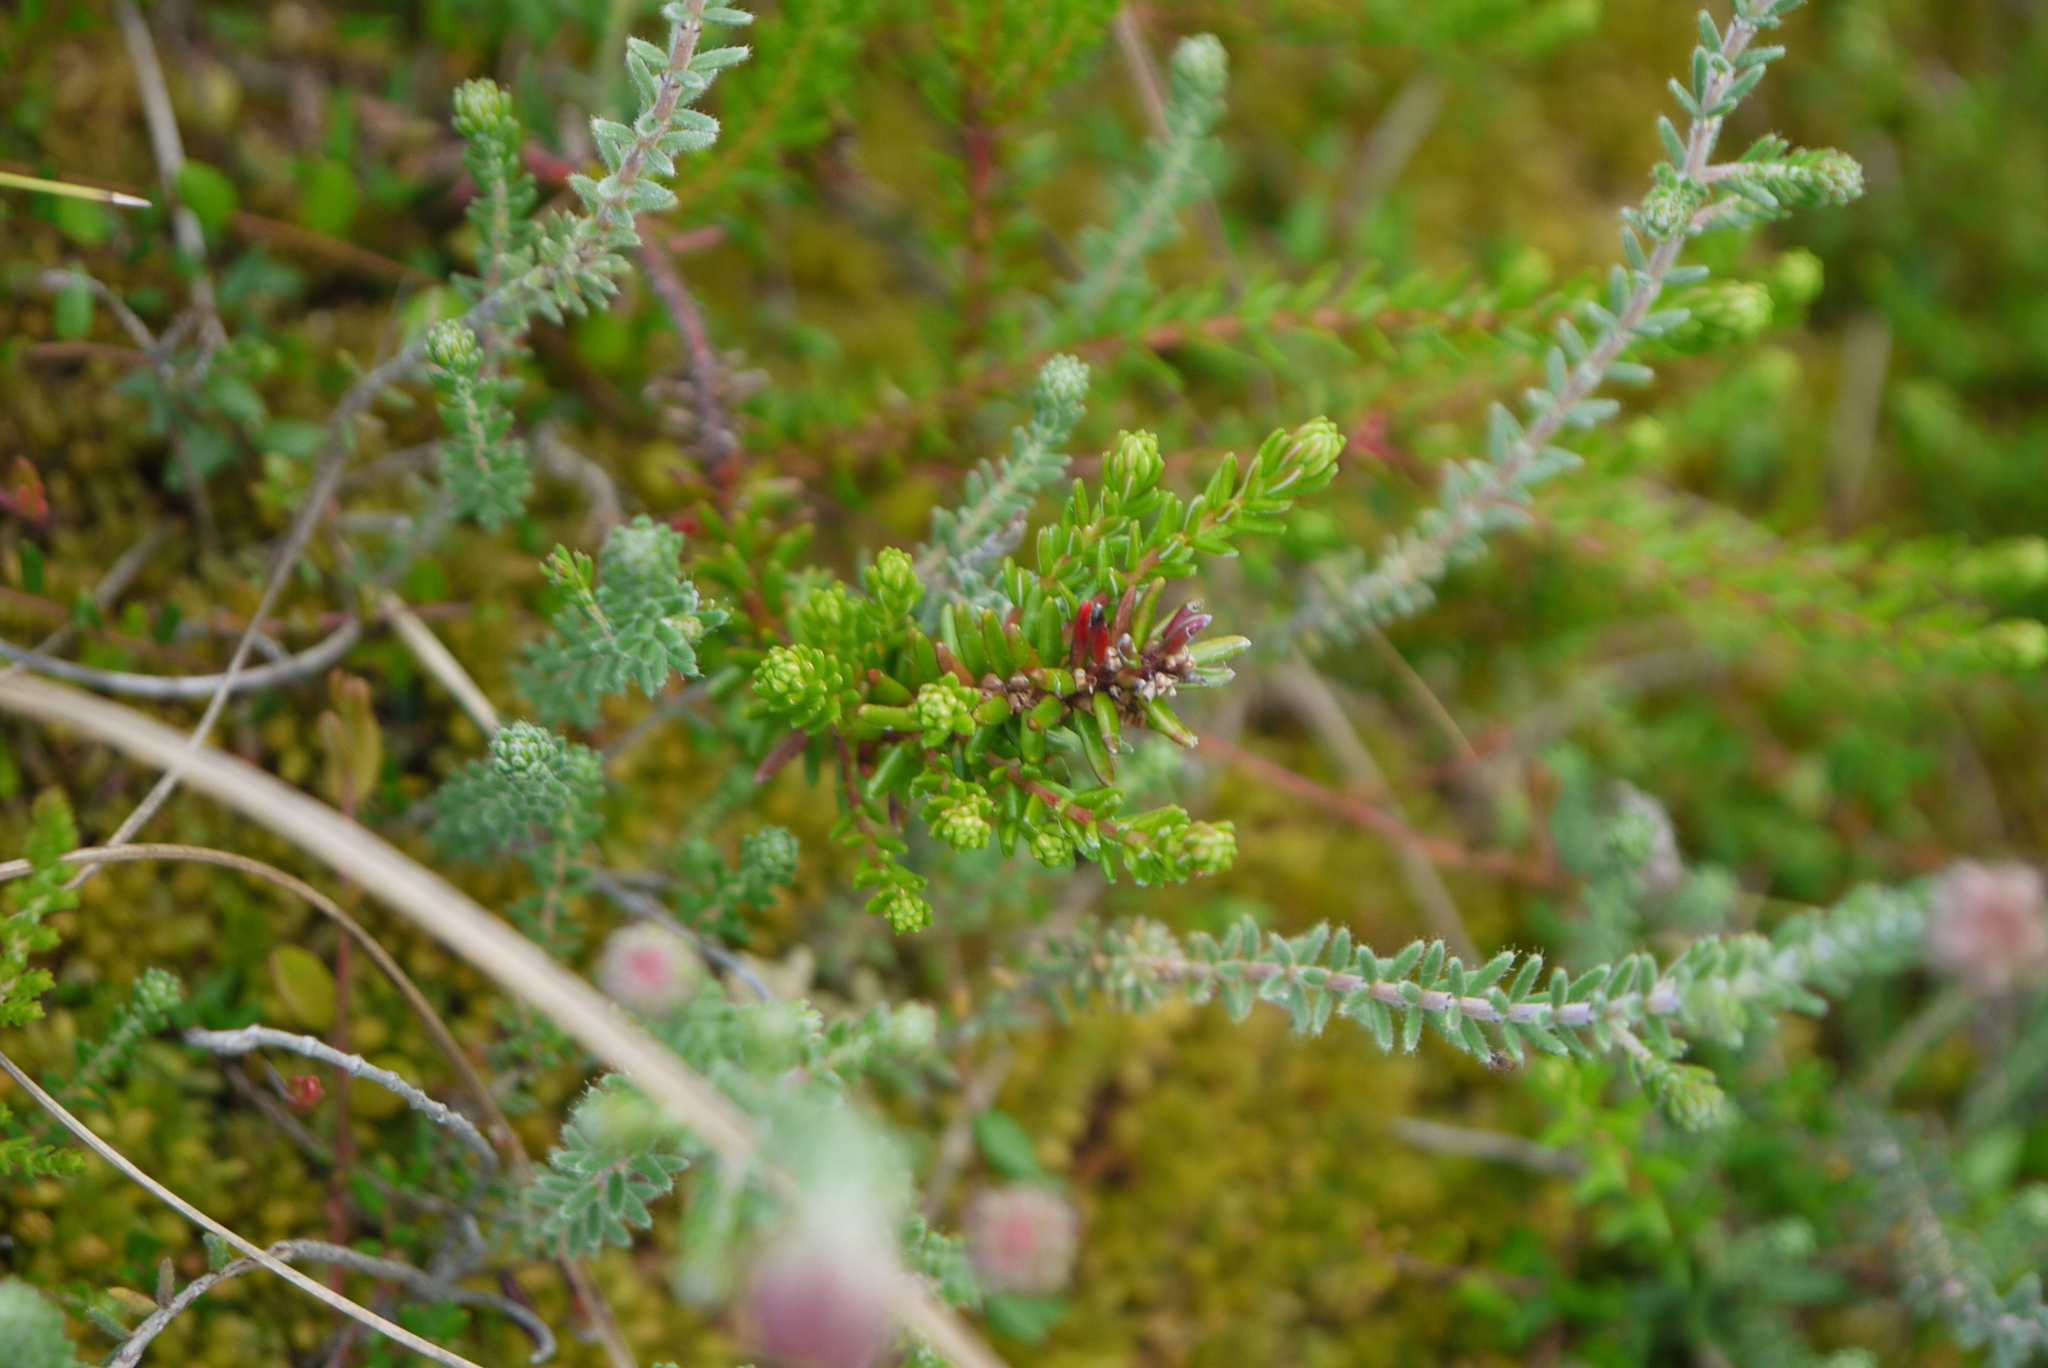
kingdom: Plantae
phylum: Tracheophyta
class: Magnoliopsida
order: Ericales
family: Ericaceae
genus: Empetrum
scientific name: Empetrum nigrum
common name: Black crowberry
